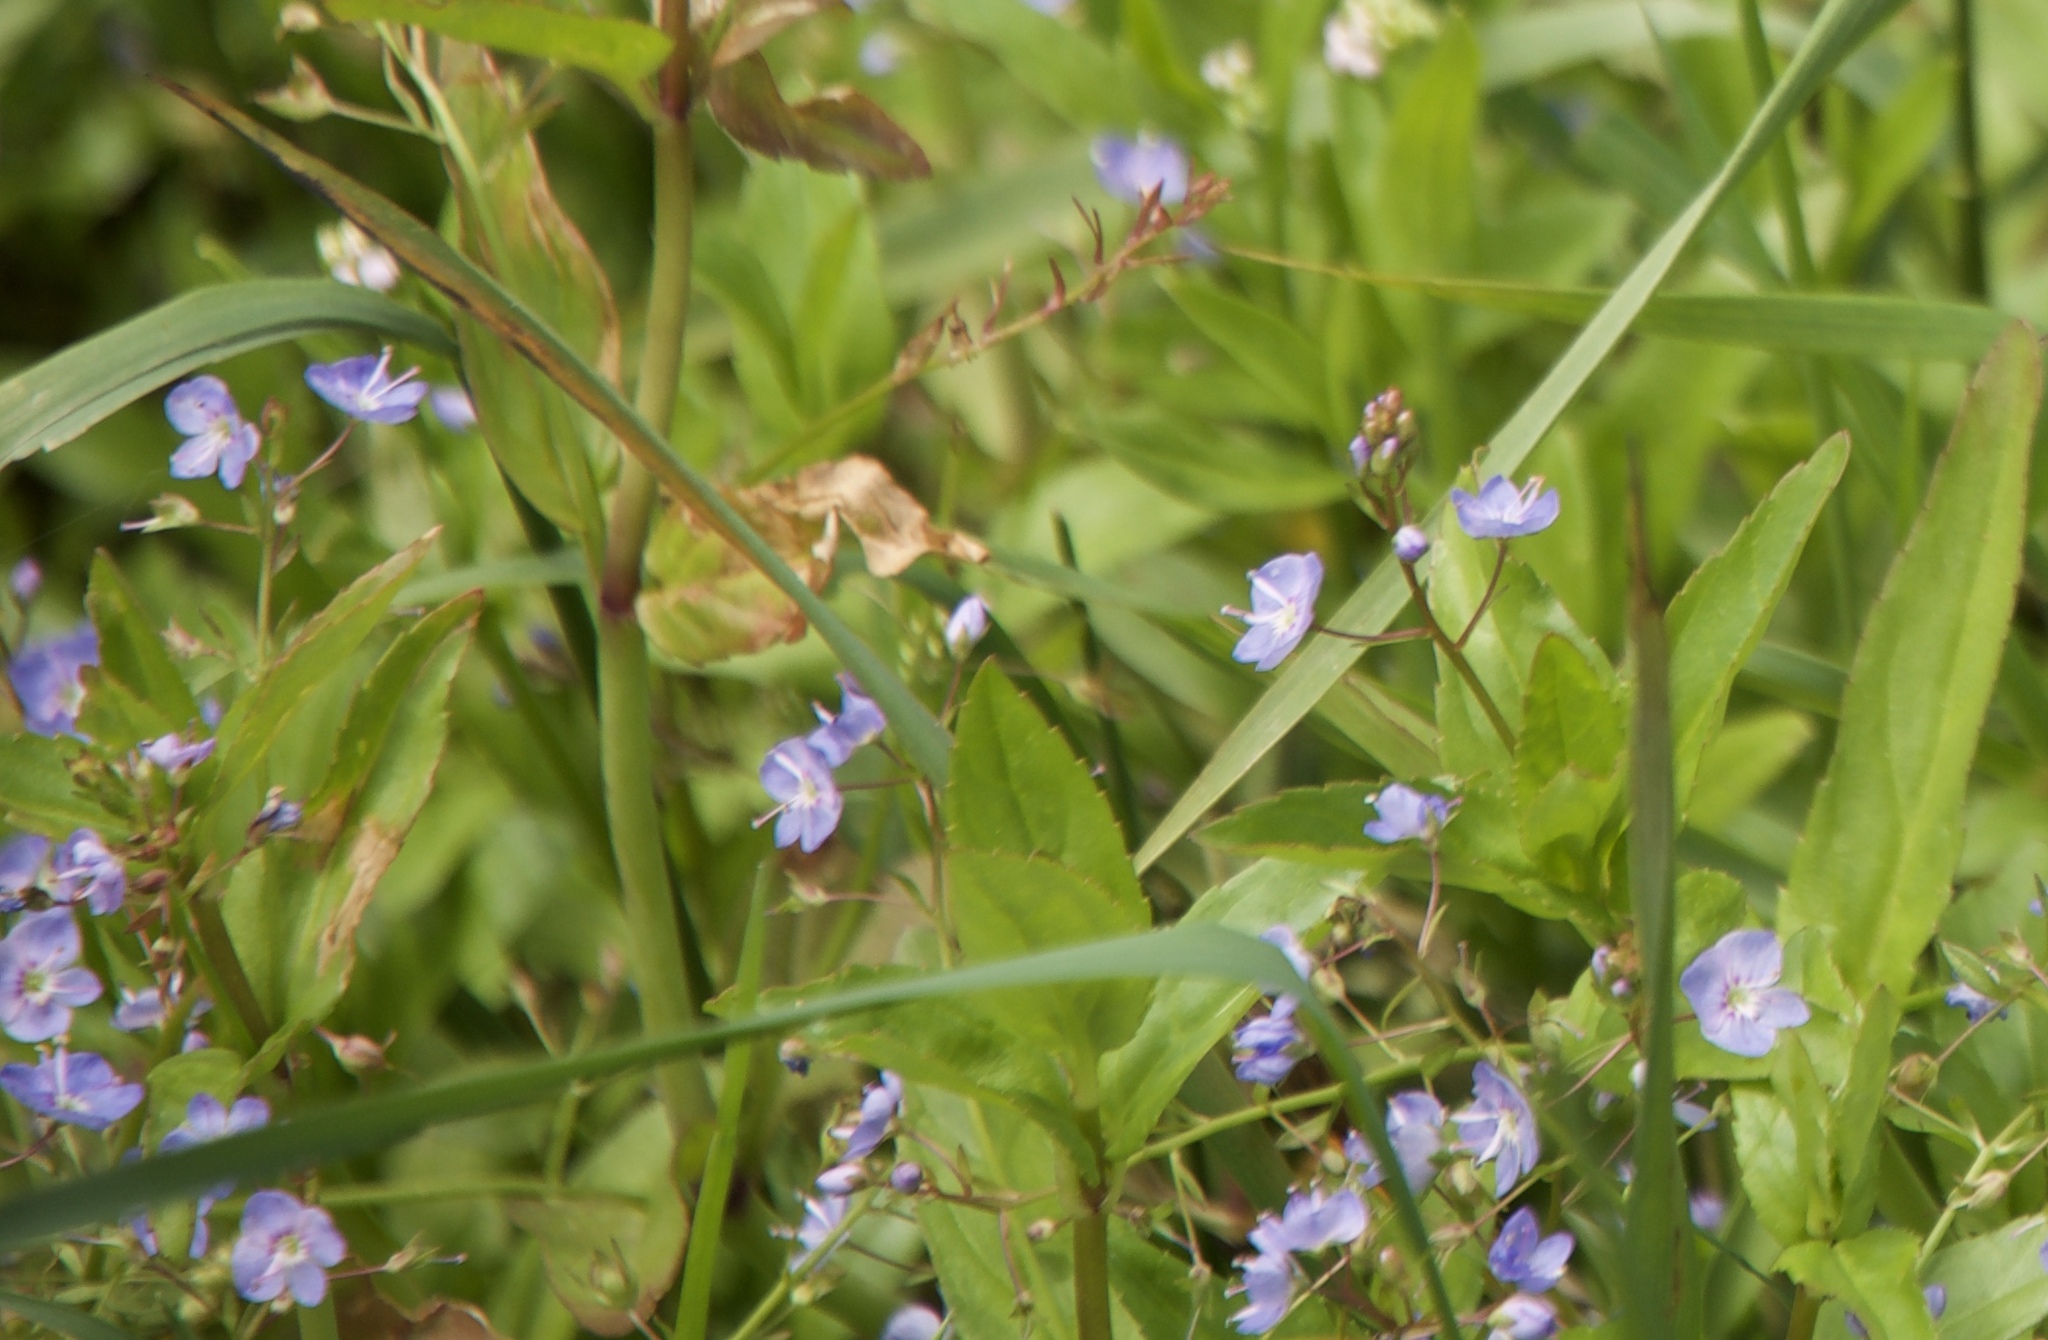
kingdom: Plantae
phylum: Tracheophyta
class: Magnoliopsida
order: Lamiales
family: Plantaginaceae
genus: Veronica
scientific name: Veronica americana
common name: American brooklime
